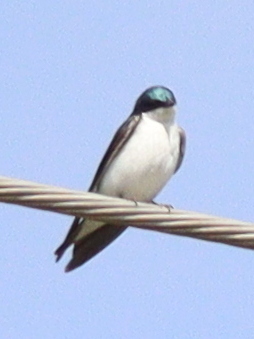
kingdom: Animalia
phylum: Chordata
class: Aves
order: Passeriformes
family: Hirundinidae
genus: Tachycineta
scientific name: Tachycineta bicolor
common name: Tree swallow
